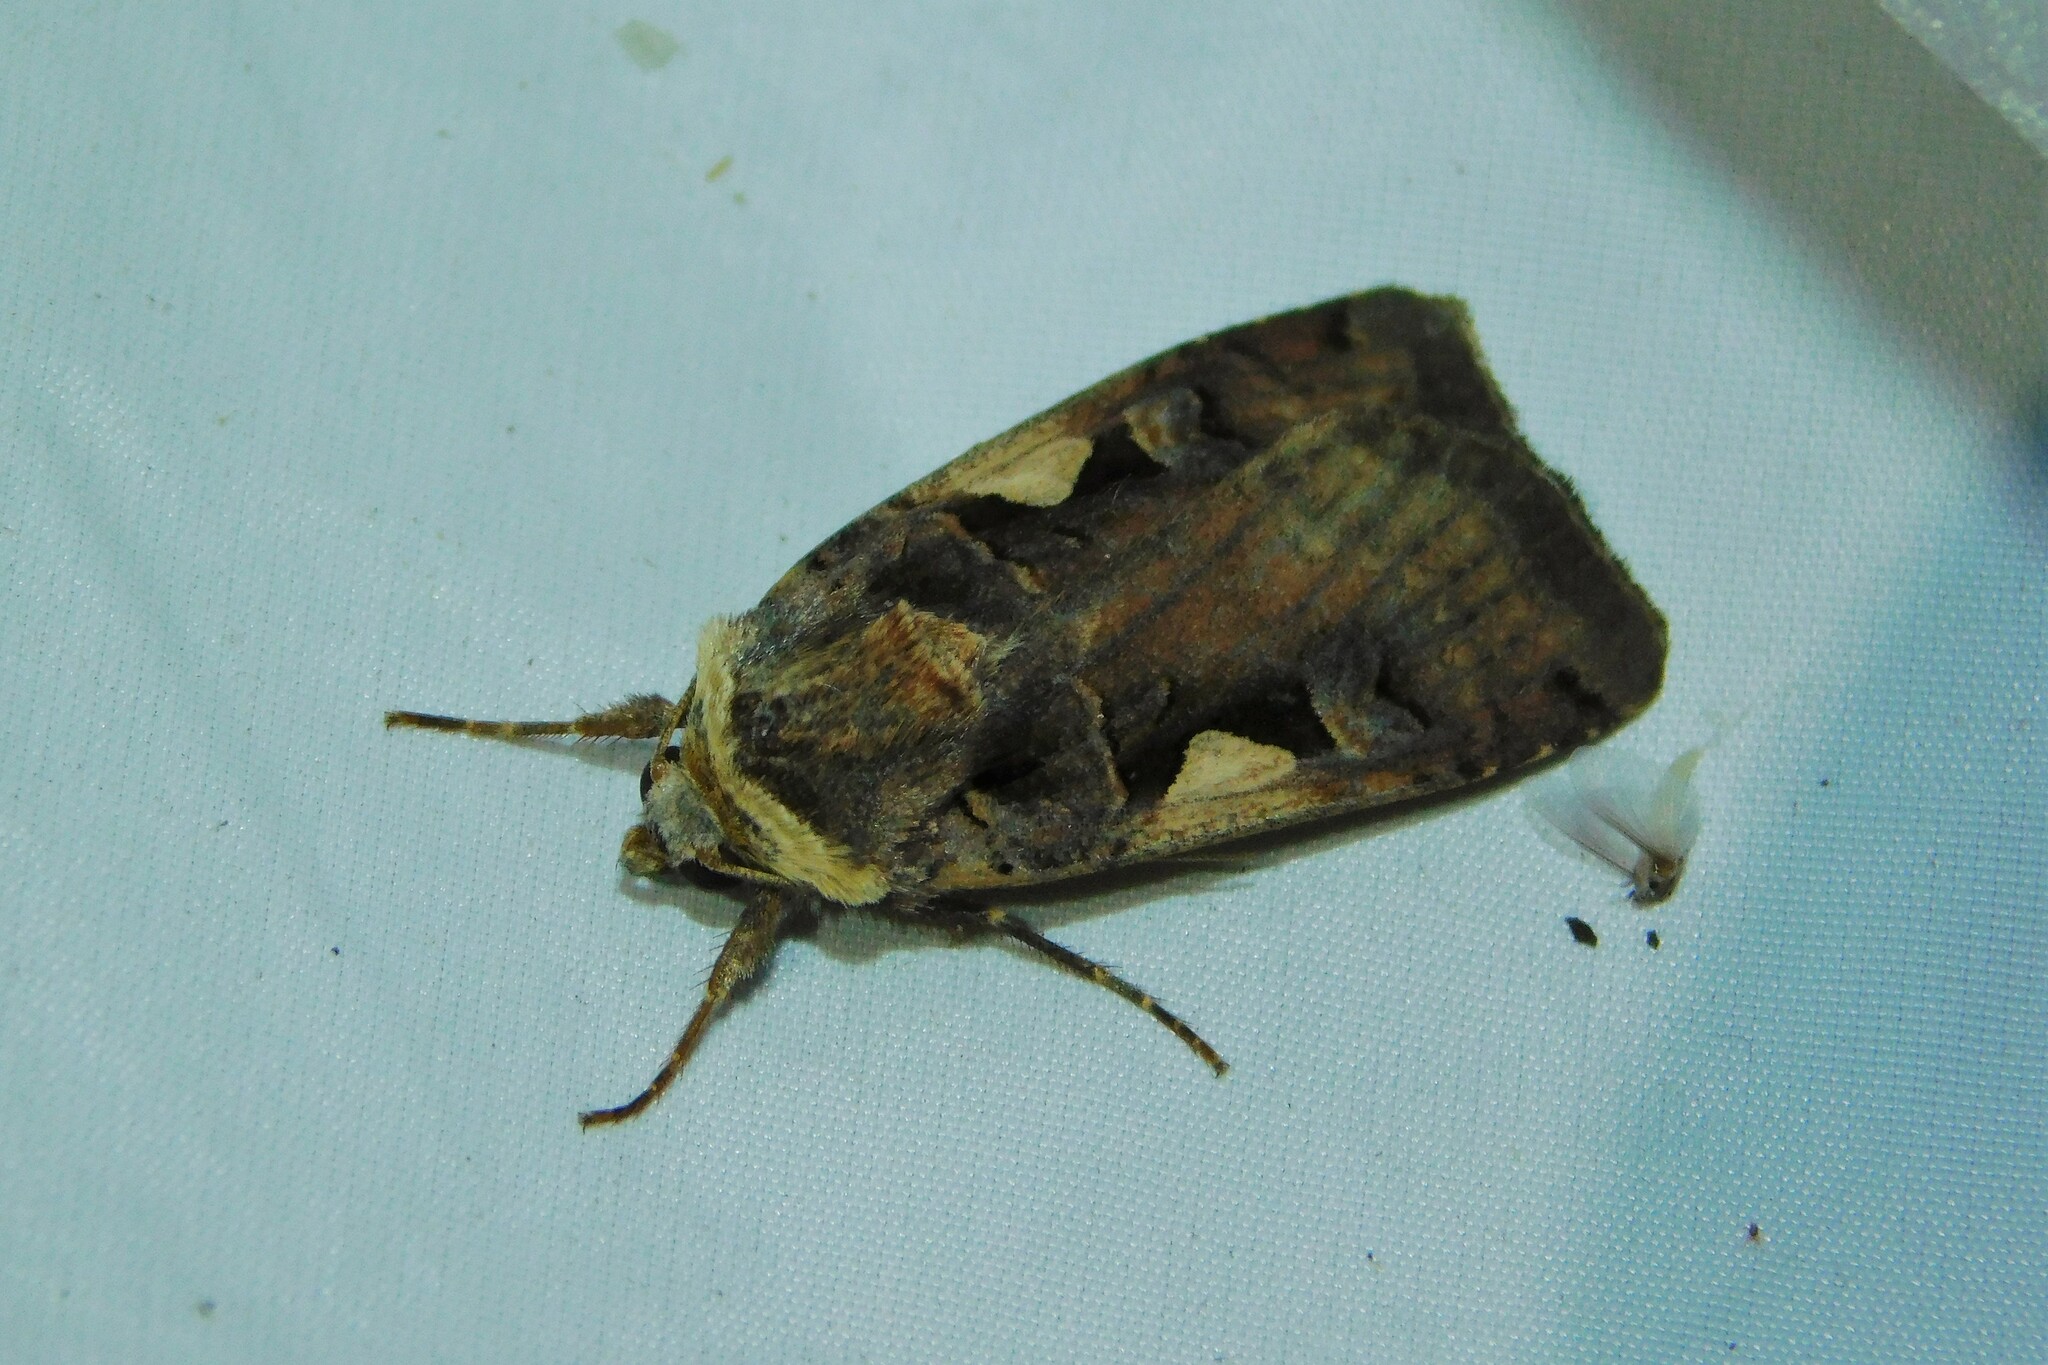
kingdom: Animalia
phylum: Arthropoda
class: Insecta
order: Lepidoptera
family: Noctuidae
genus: Xestia
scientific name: Xestia c-nigrum
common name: Setaceous hebrew character
